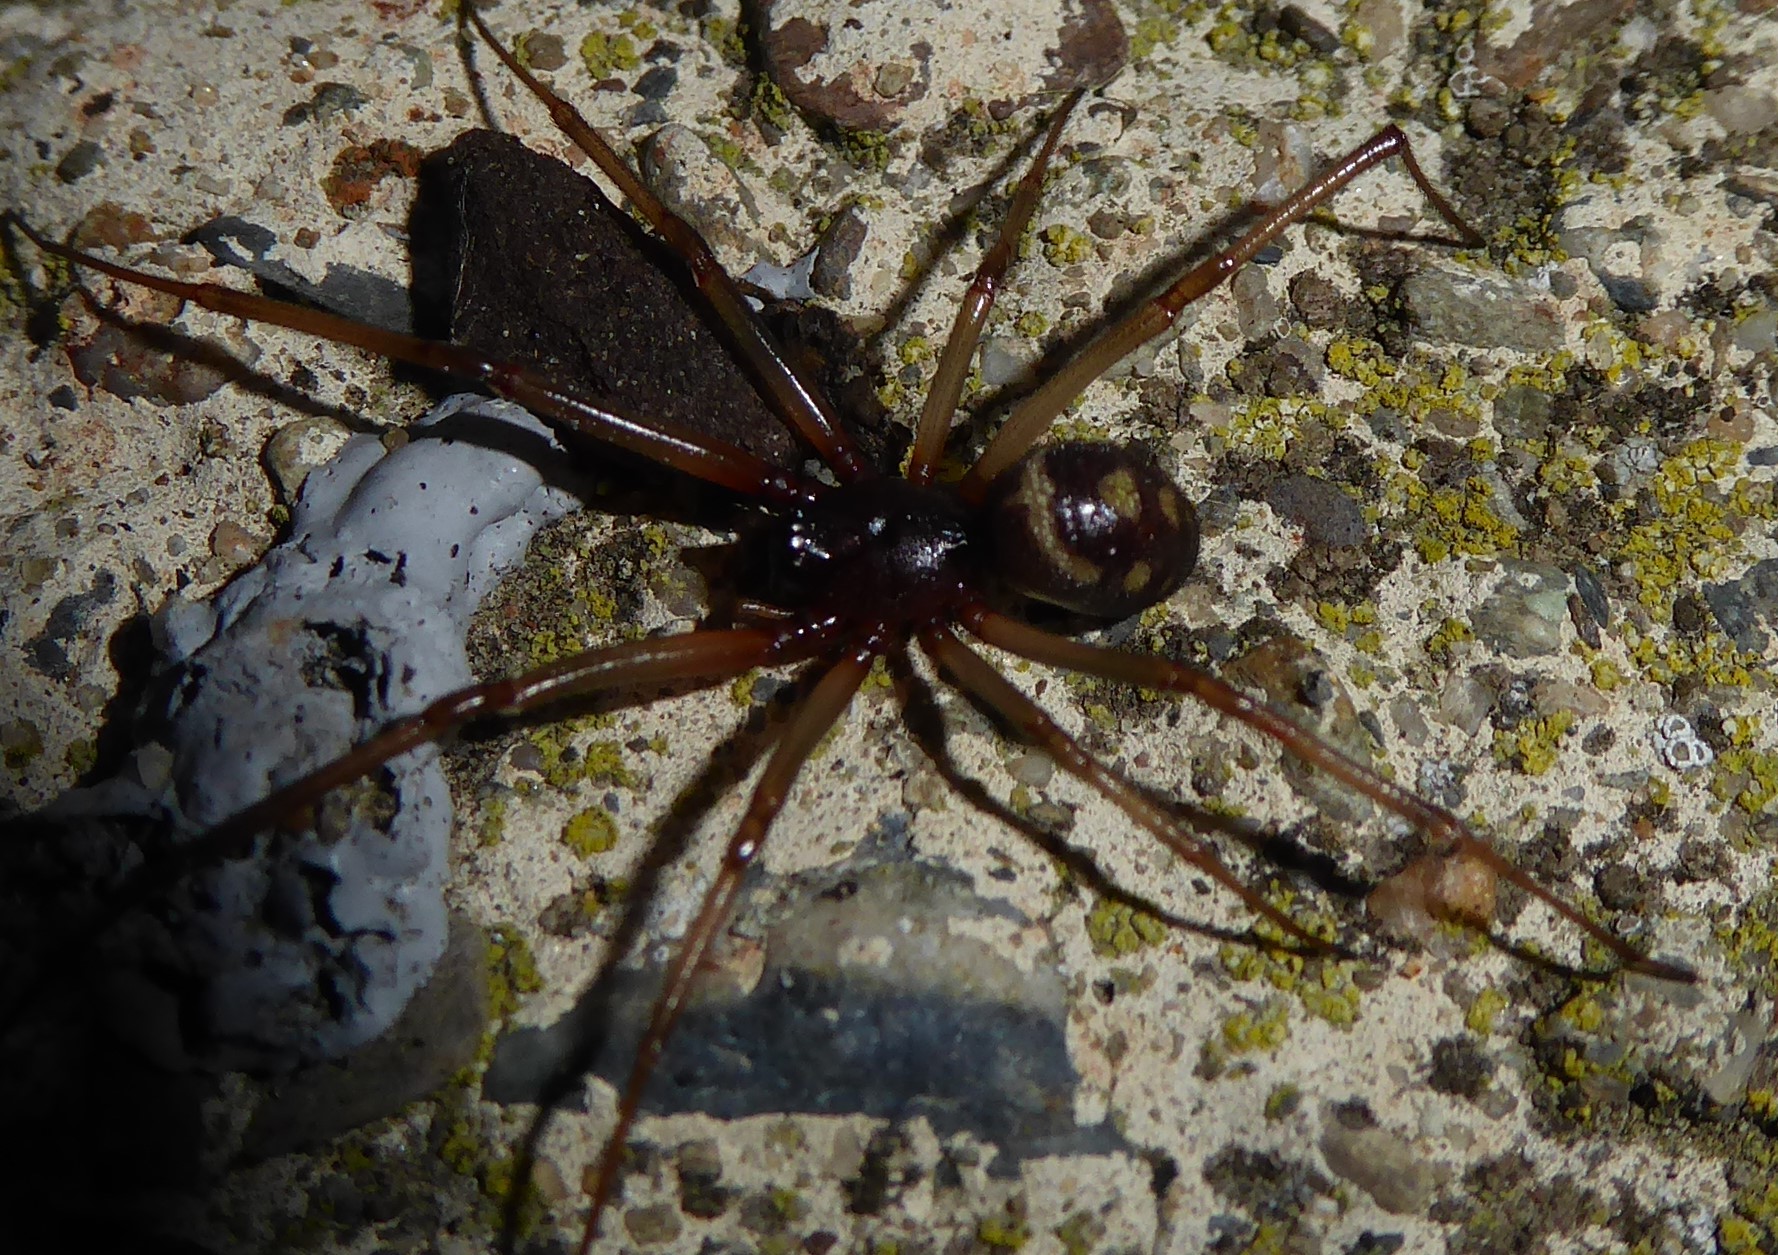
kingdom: Animalia
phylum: Arthropoda
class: Arachnida
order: Araneae
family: Theridiidae
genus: Steatoda
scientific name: Steatoda grossa
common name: False black widow
